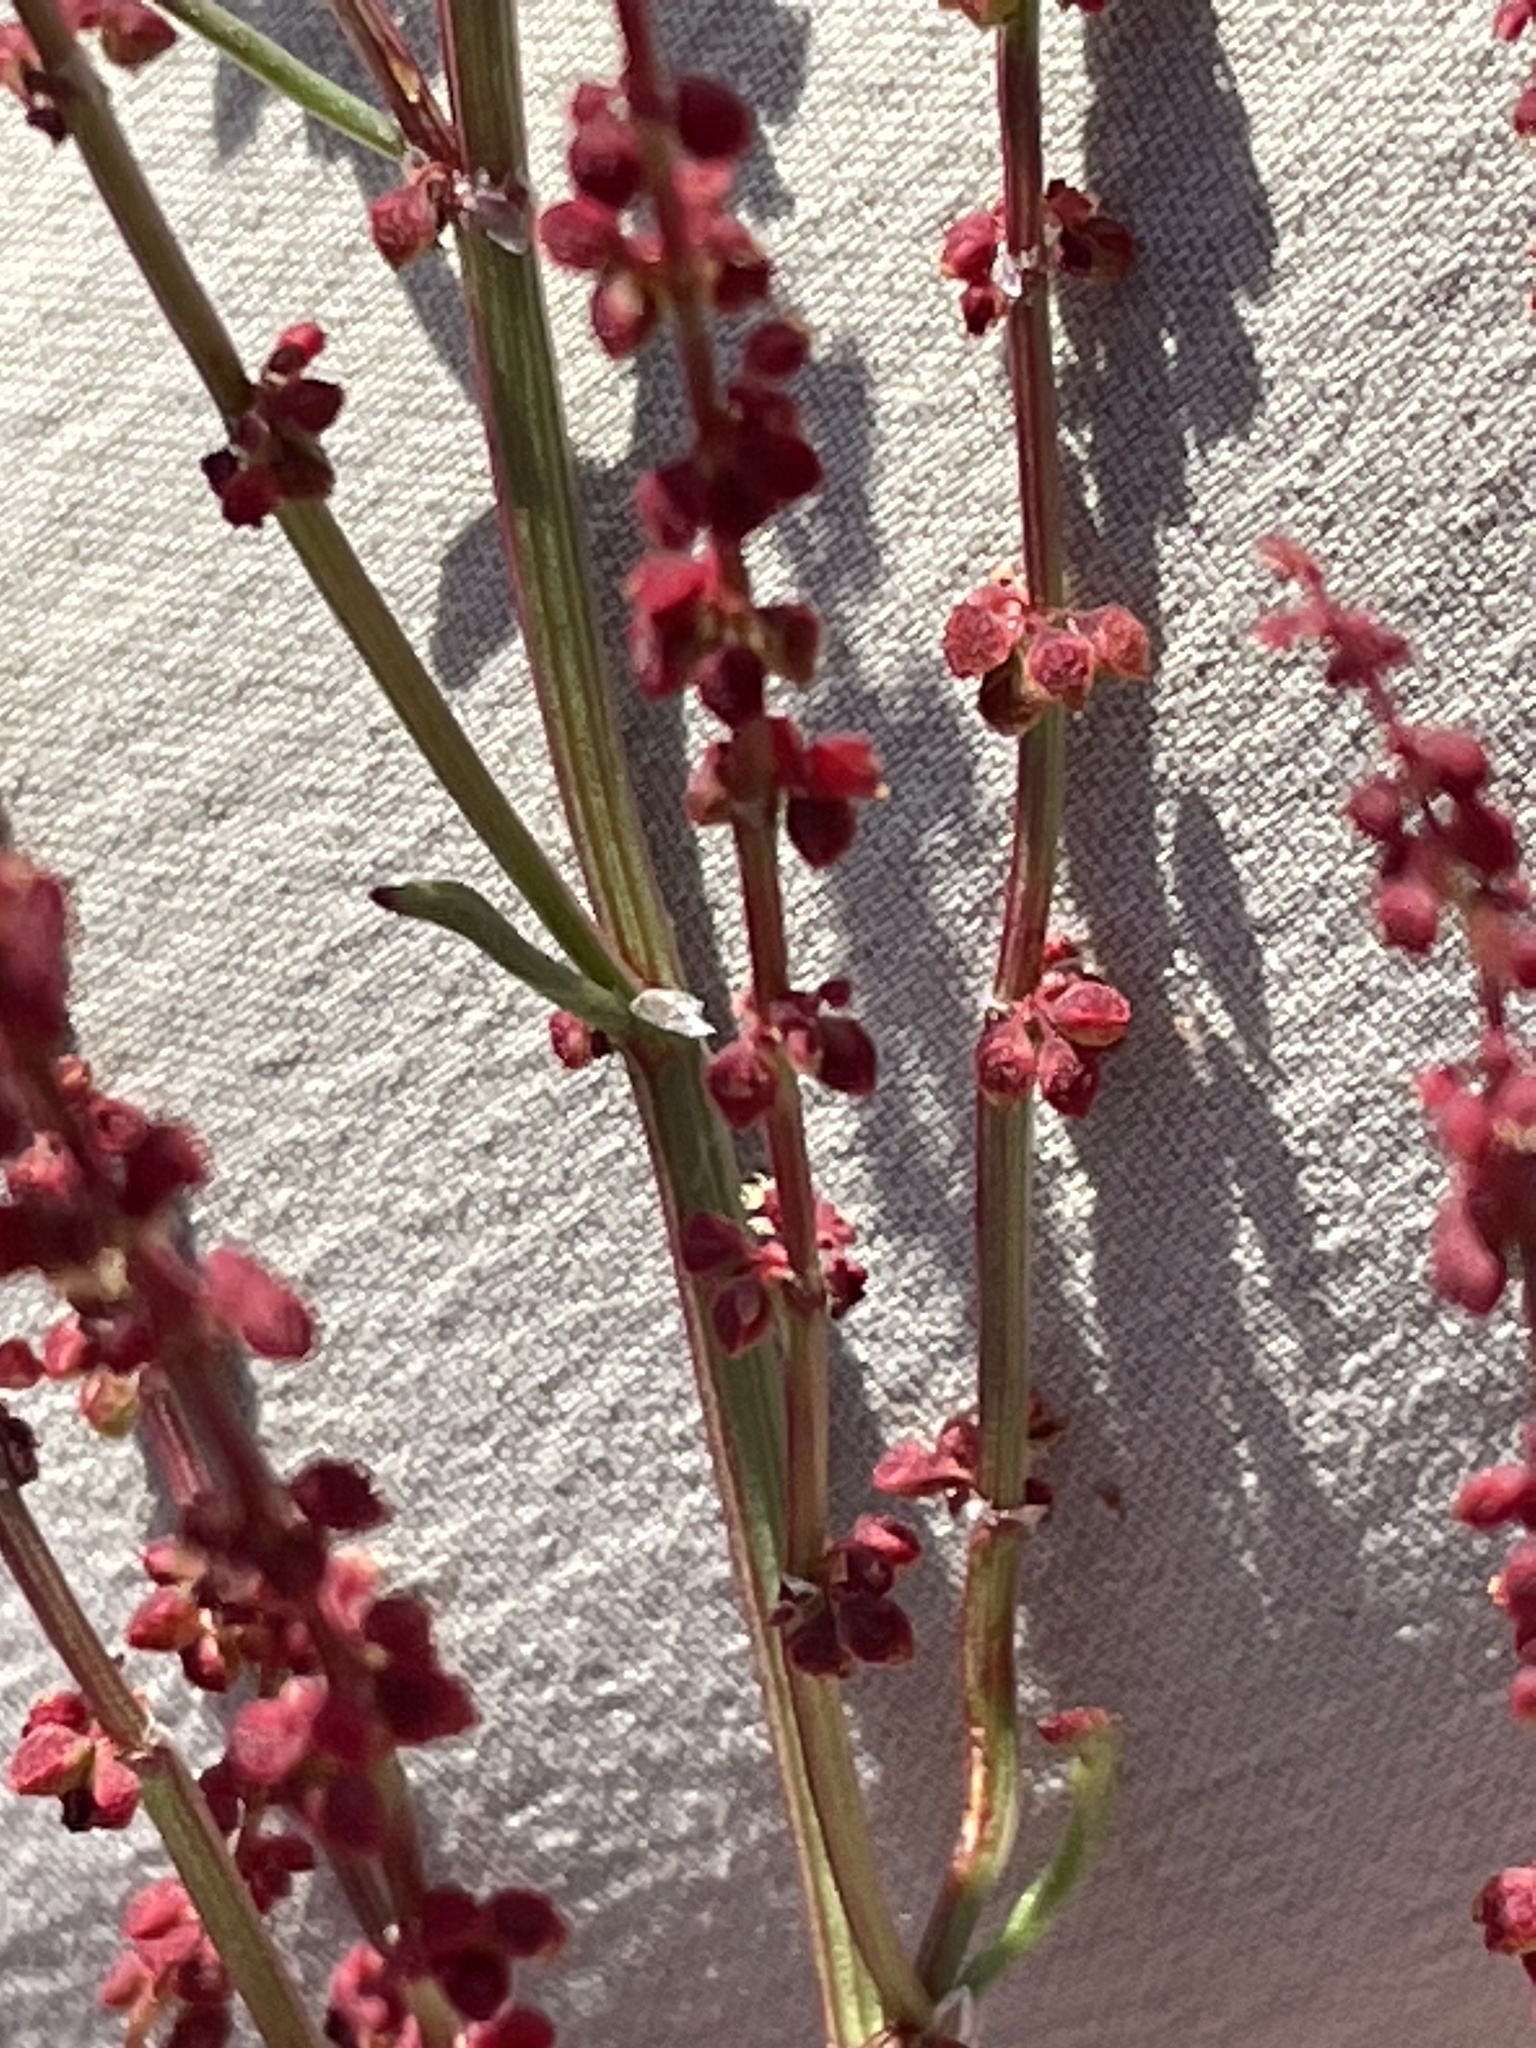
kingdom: Plantae
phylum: Tracheophyta
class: Magnoliopsida
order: Caryophyllales
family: Polygonaceae
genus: Rumex
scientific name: Rumex acetosella
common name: Common sheep sorrel
